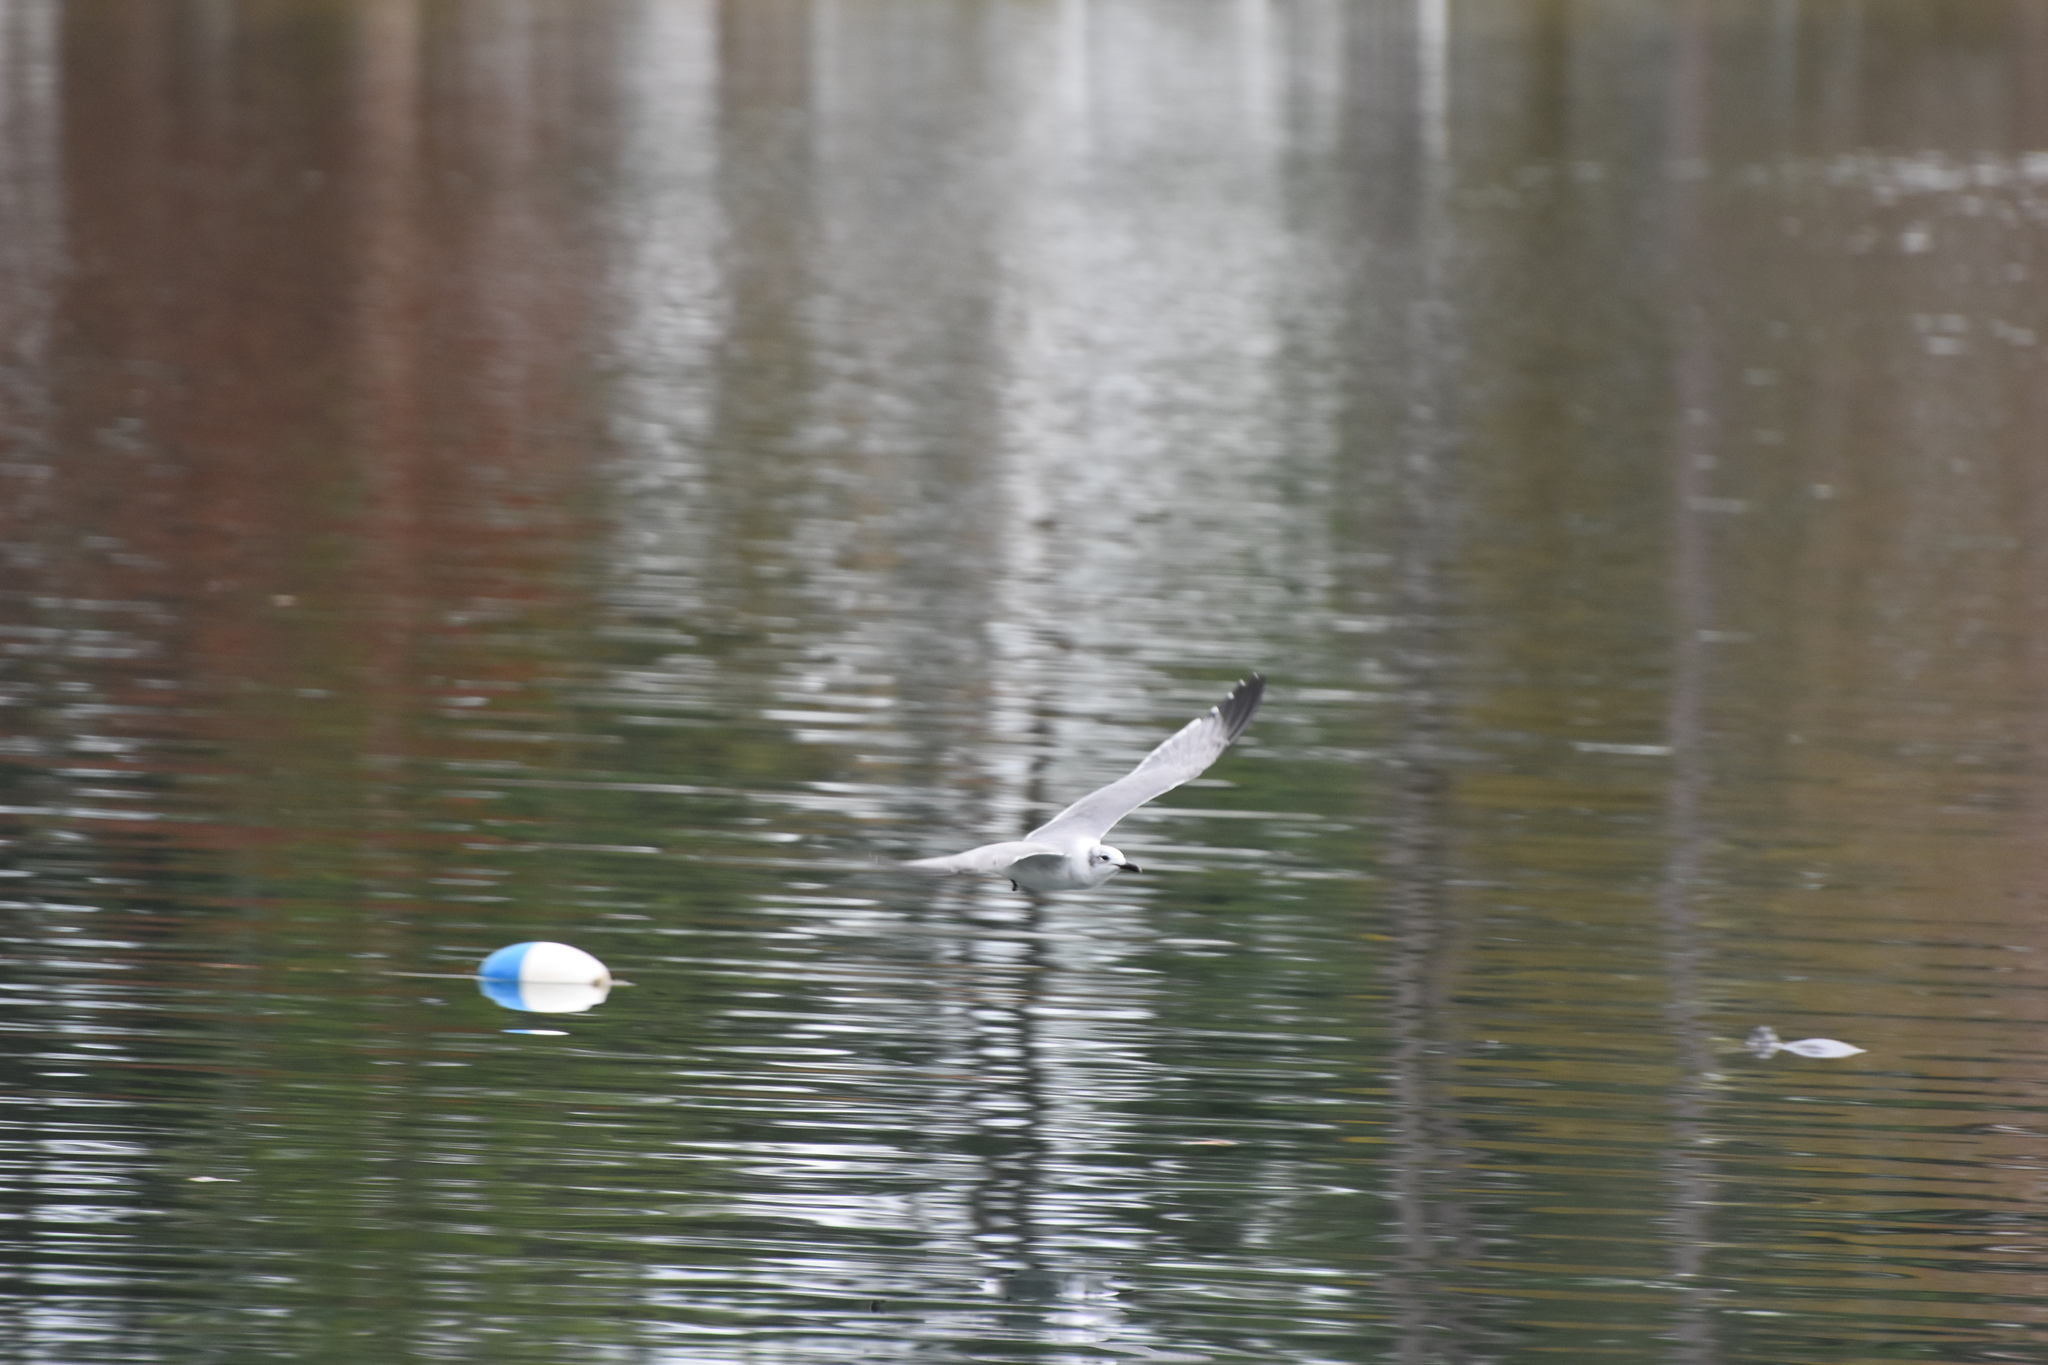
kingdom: Animalia
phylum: Chordata
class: Aves
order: Charadriiformes
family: Laridae
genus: Leucophaeus
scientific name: Leucophaeus atricilla
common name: Laughing gull
